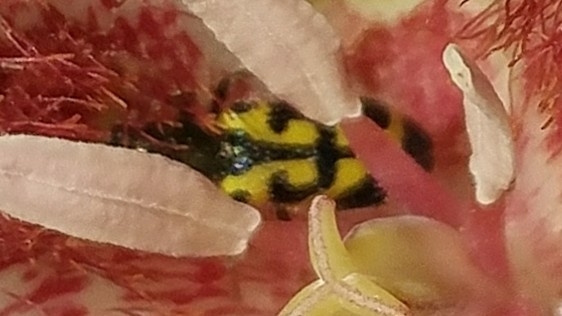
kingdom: Animalia
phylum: Arthropoda
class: Insecta
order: Coleoptera
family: Cleridae
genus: Trichodes
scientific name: Trichodes ornatus
